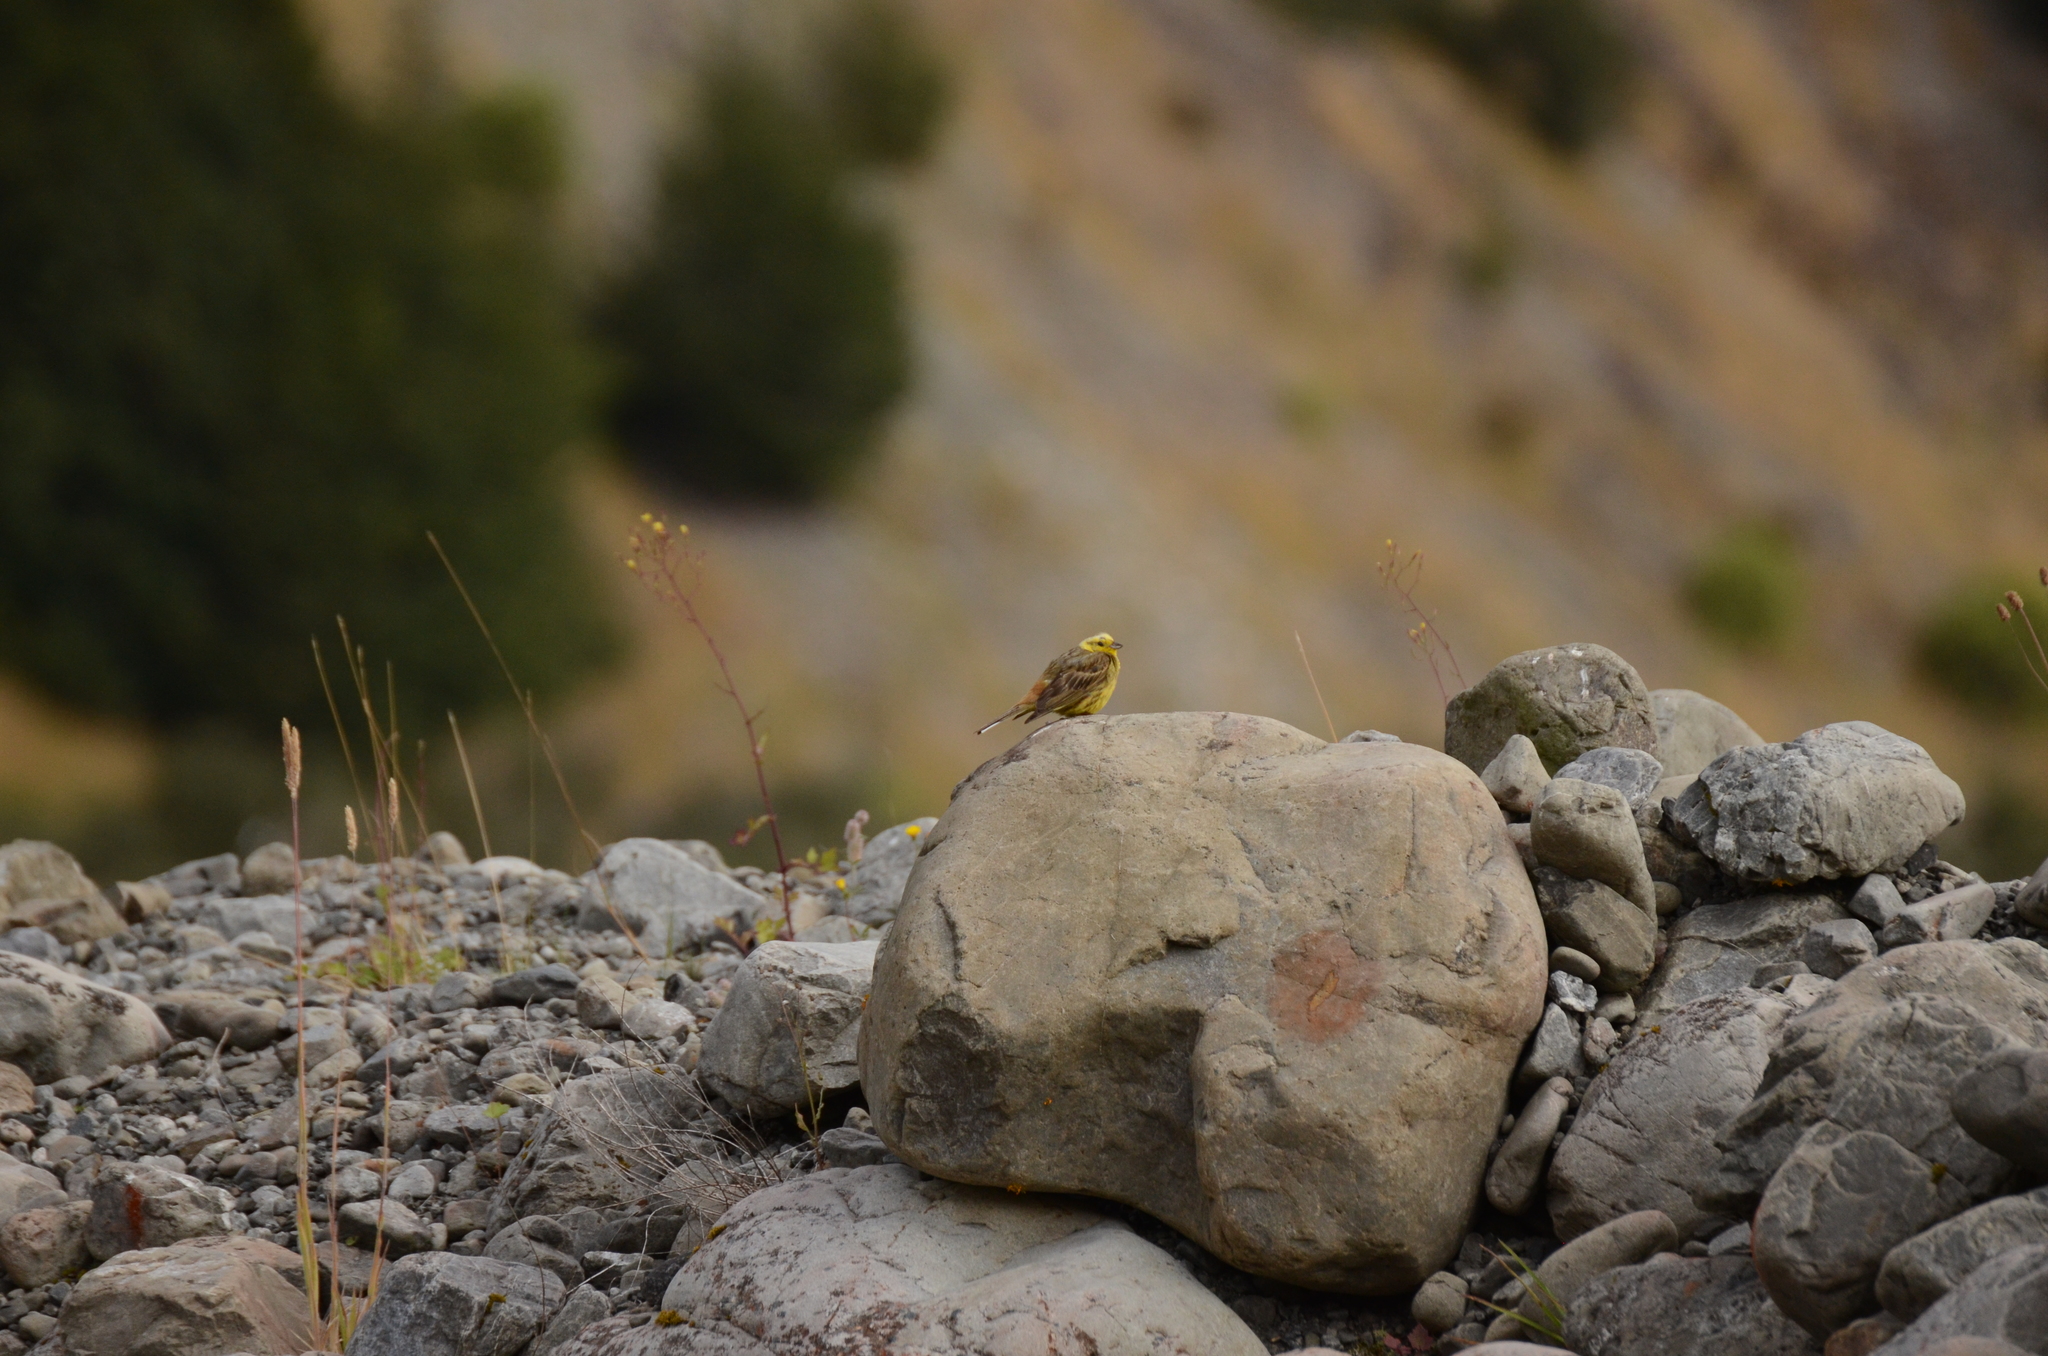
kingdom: Animalia
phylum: Chordata
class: Aves
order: Passeriformes
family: Emberizidae
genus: Emberiza
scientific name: Emberiza citrinella
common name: Yellowhammer
